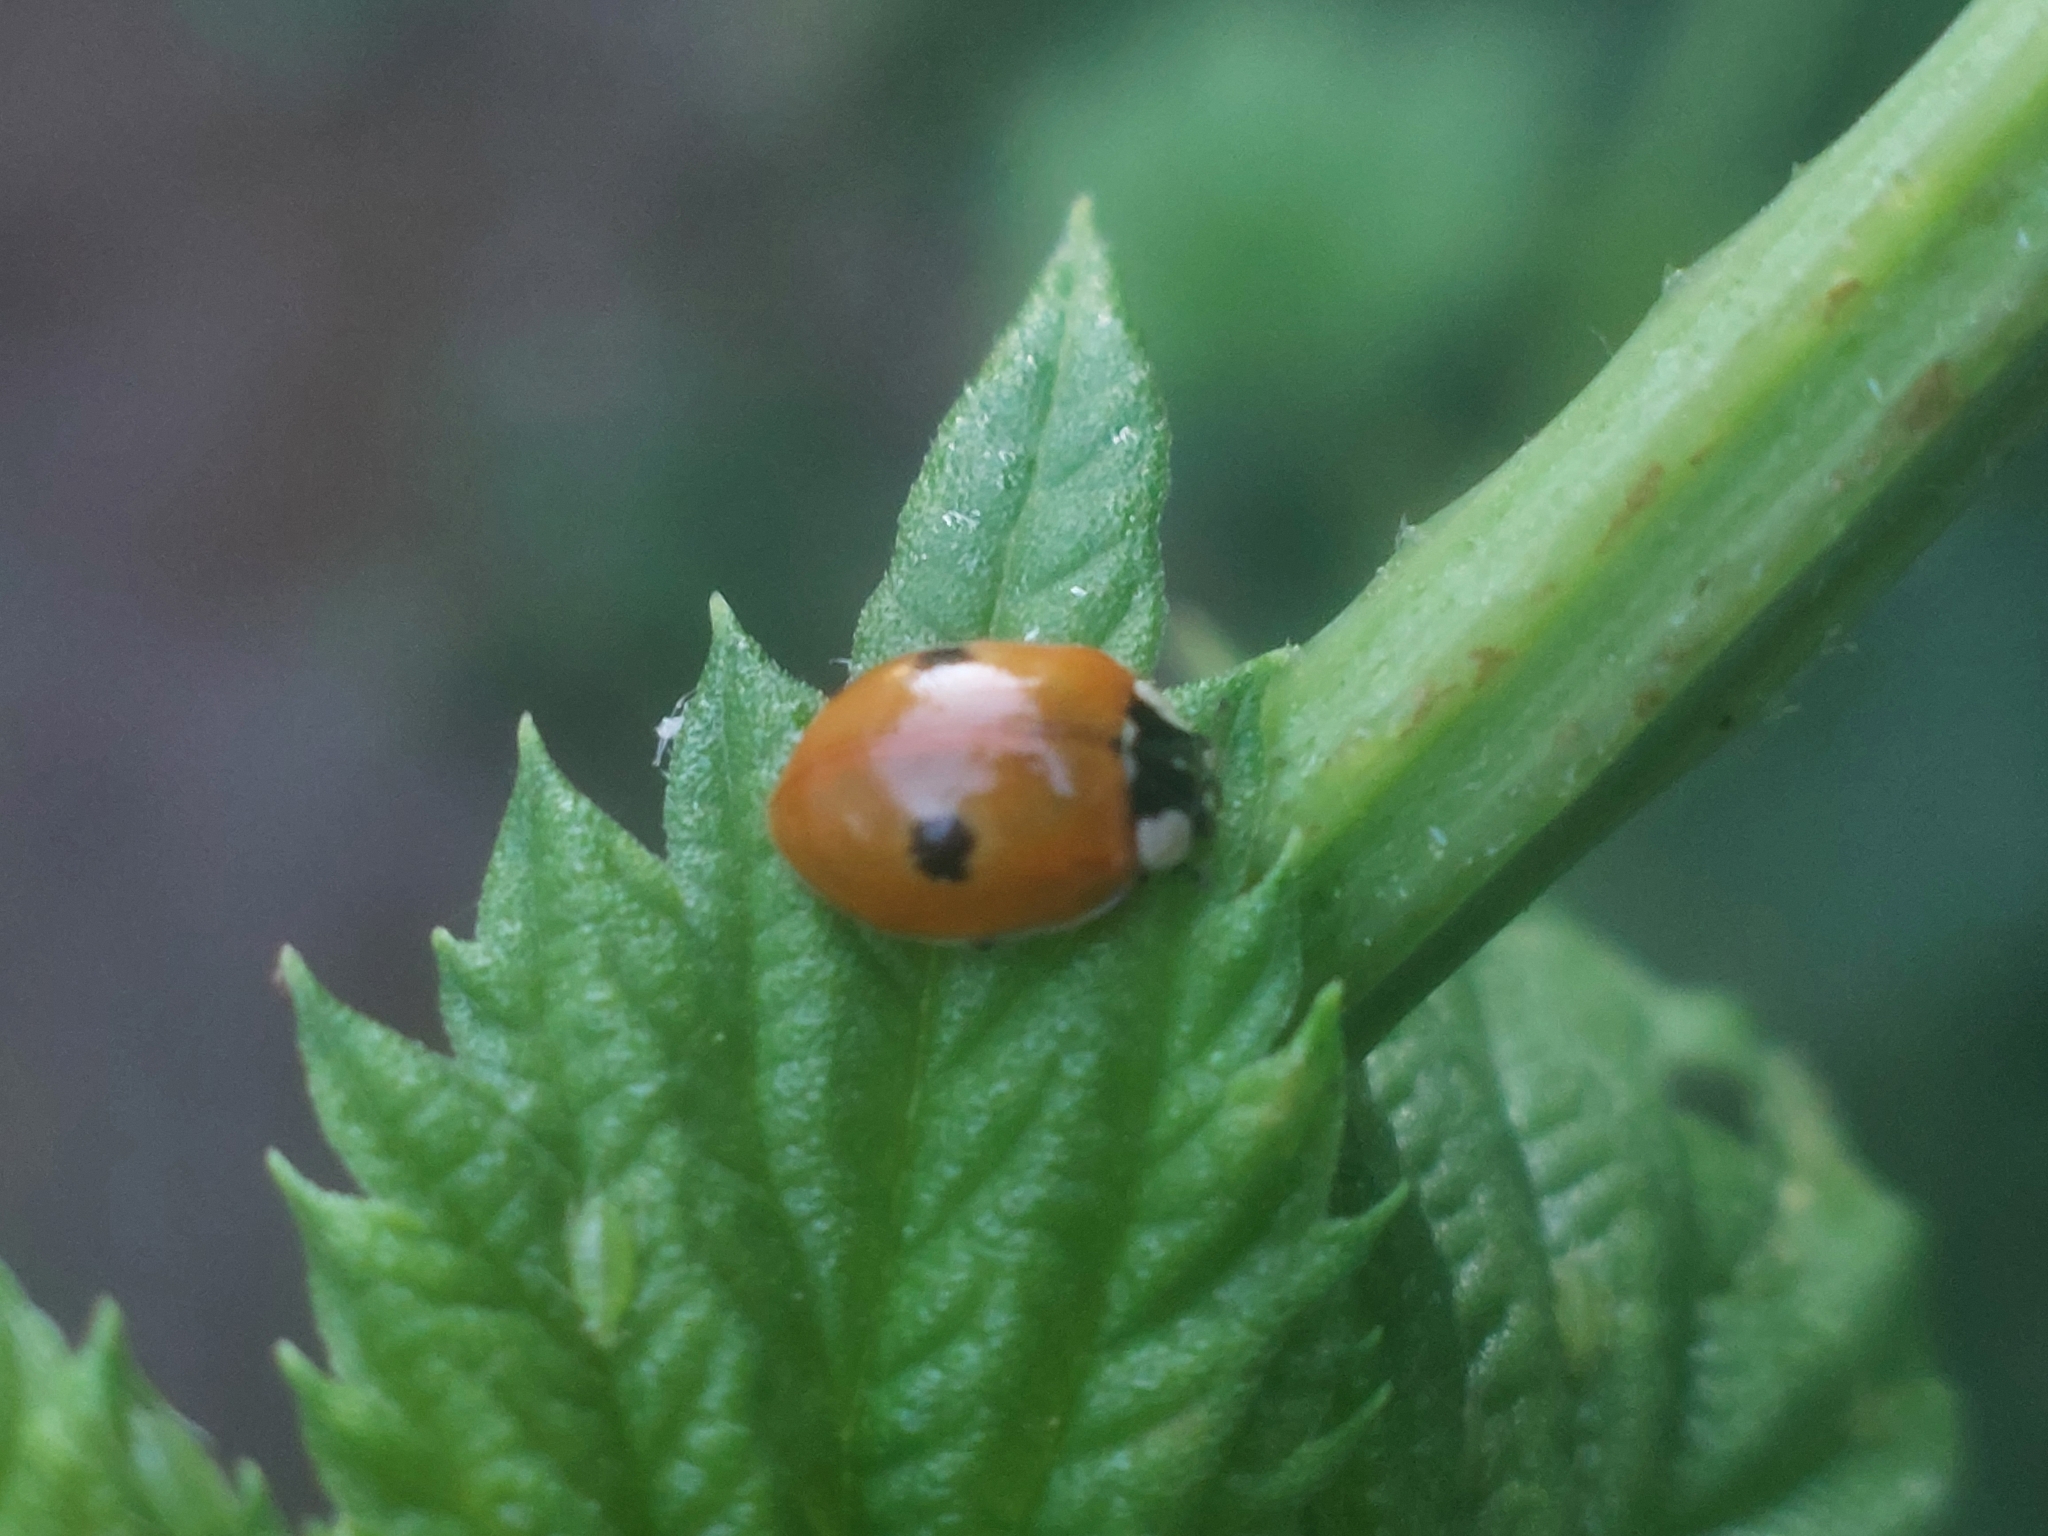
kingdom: Animalia
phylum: Arthropoda
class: Insecta
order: Coleoptera
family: Coccinellidae
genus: Adalia
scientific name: Adalia bipunctata
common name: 2-spot ladybird
